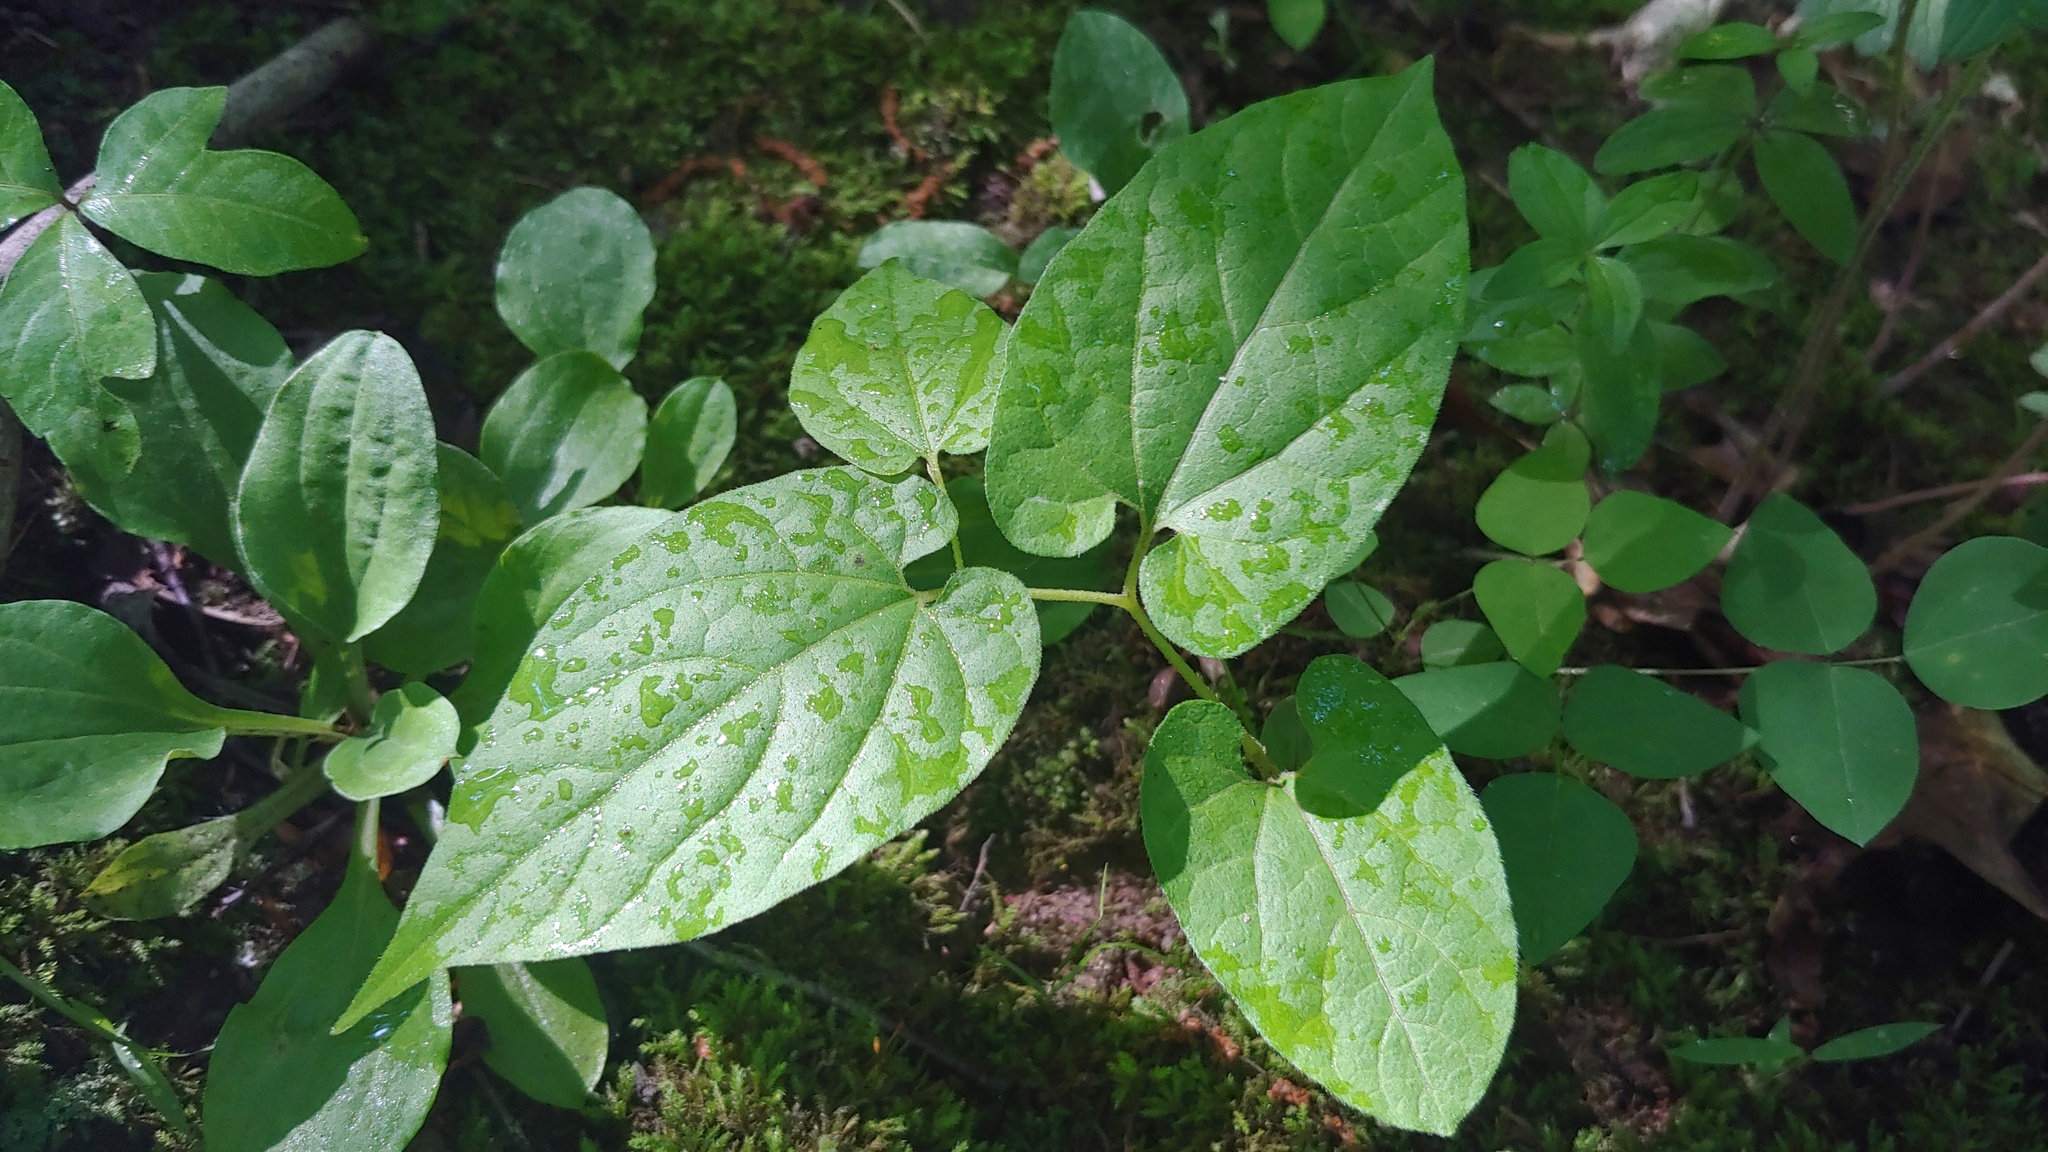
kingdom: Plantae
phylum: Tracheophyta
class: Magnoliopsida
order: Piperales
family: Aristolochiaceae
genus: Endodeca
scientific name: Endodeca serpentaria
